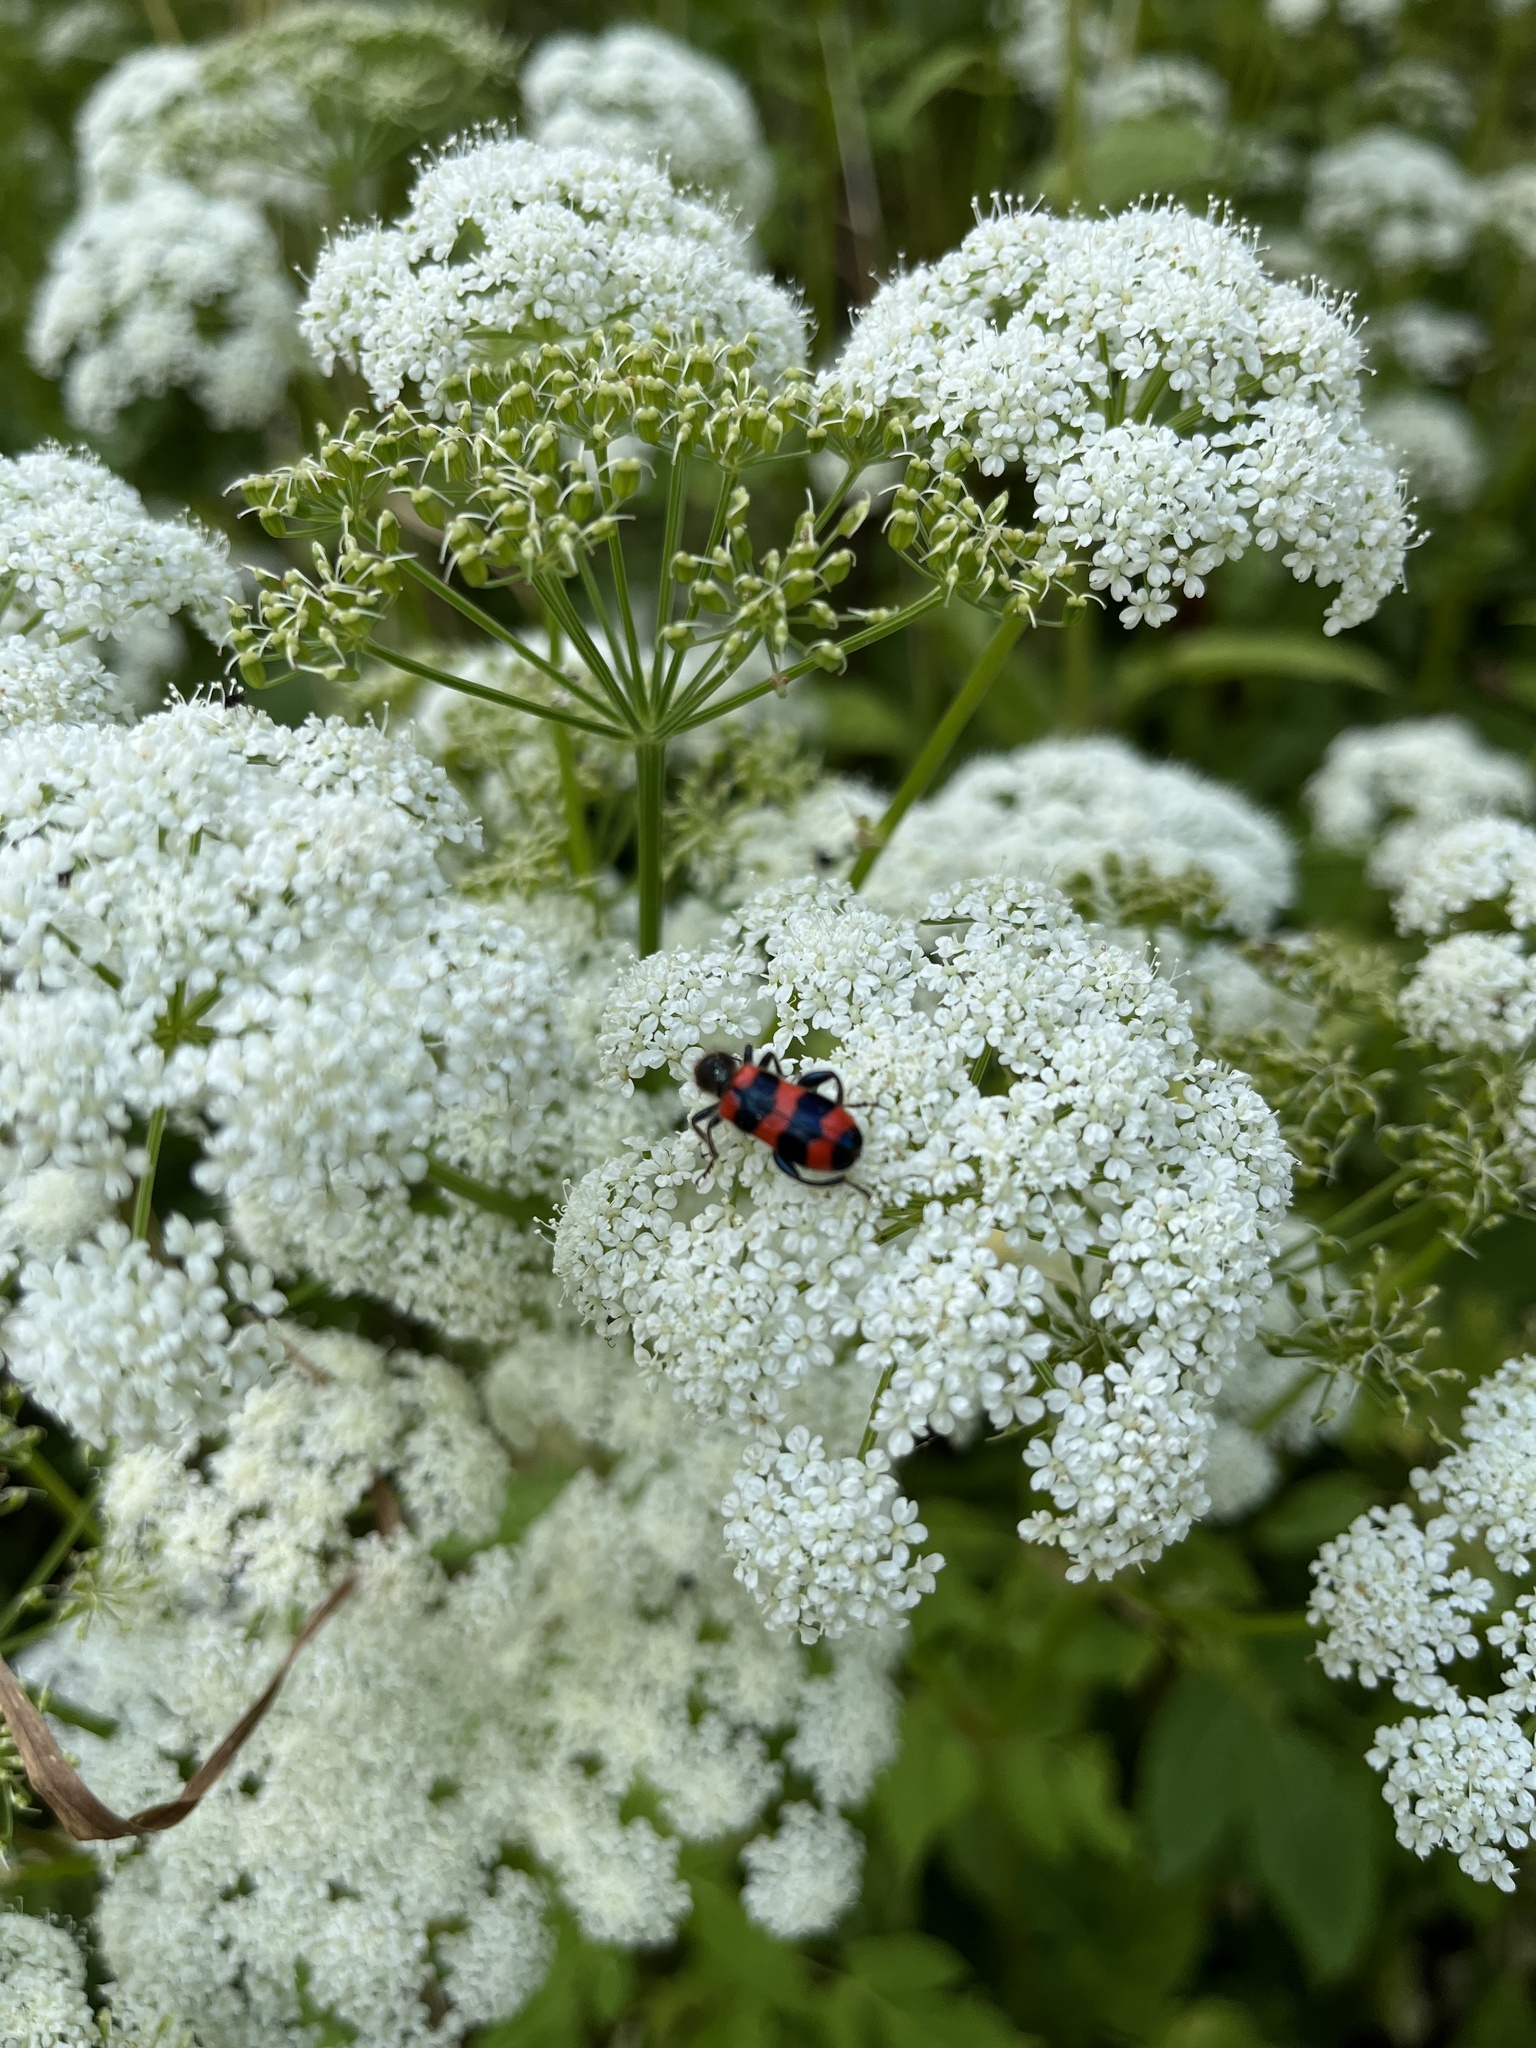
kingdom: Animalia
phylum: Arthropoda
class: Insecta
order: Coleoptera
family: Cleridae
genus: Trichodes
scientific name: Trichodes apiarius
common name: Bee-eating beetle
